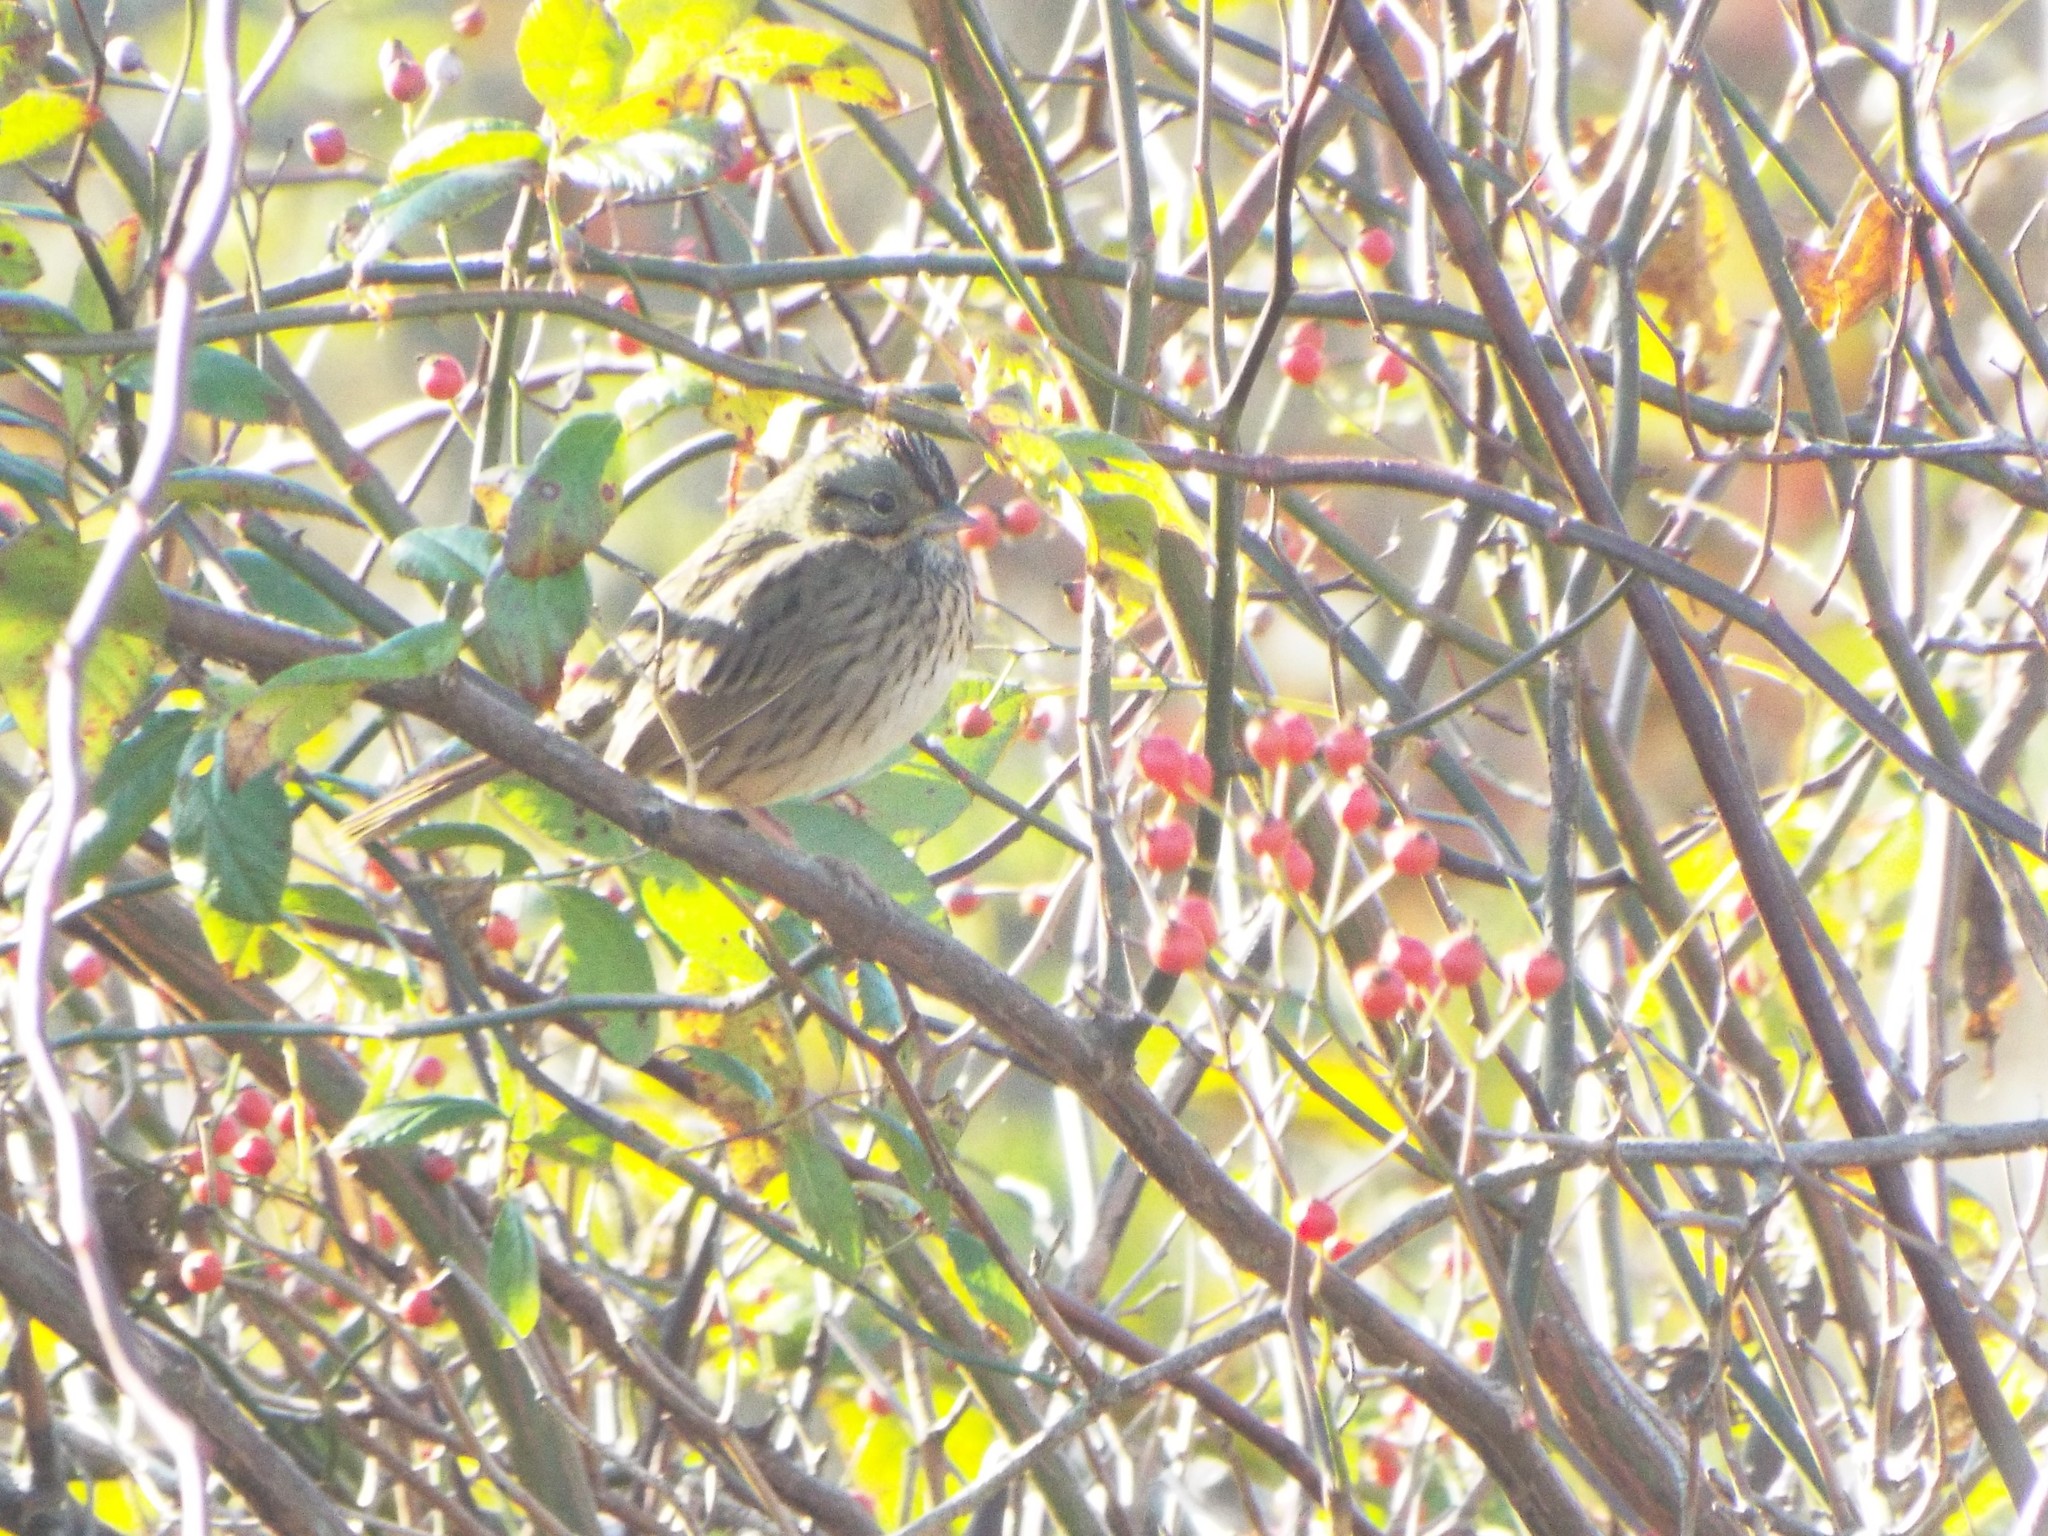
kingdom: Animalia
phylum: Chordata
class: Aves
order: Passeriformes
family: Passerellidae
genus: Melospiza
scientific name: Melospiza lincolnii
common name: Lincoln's sparrow
